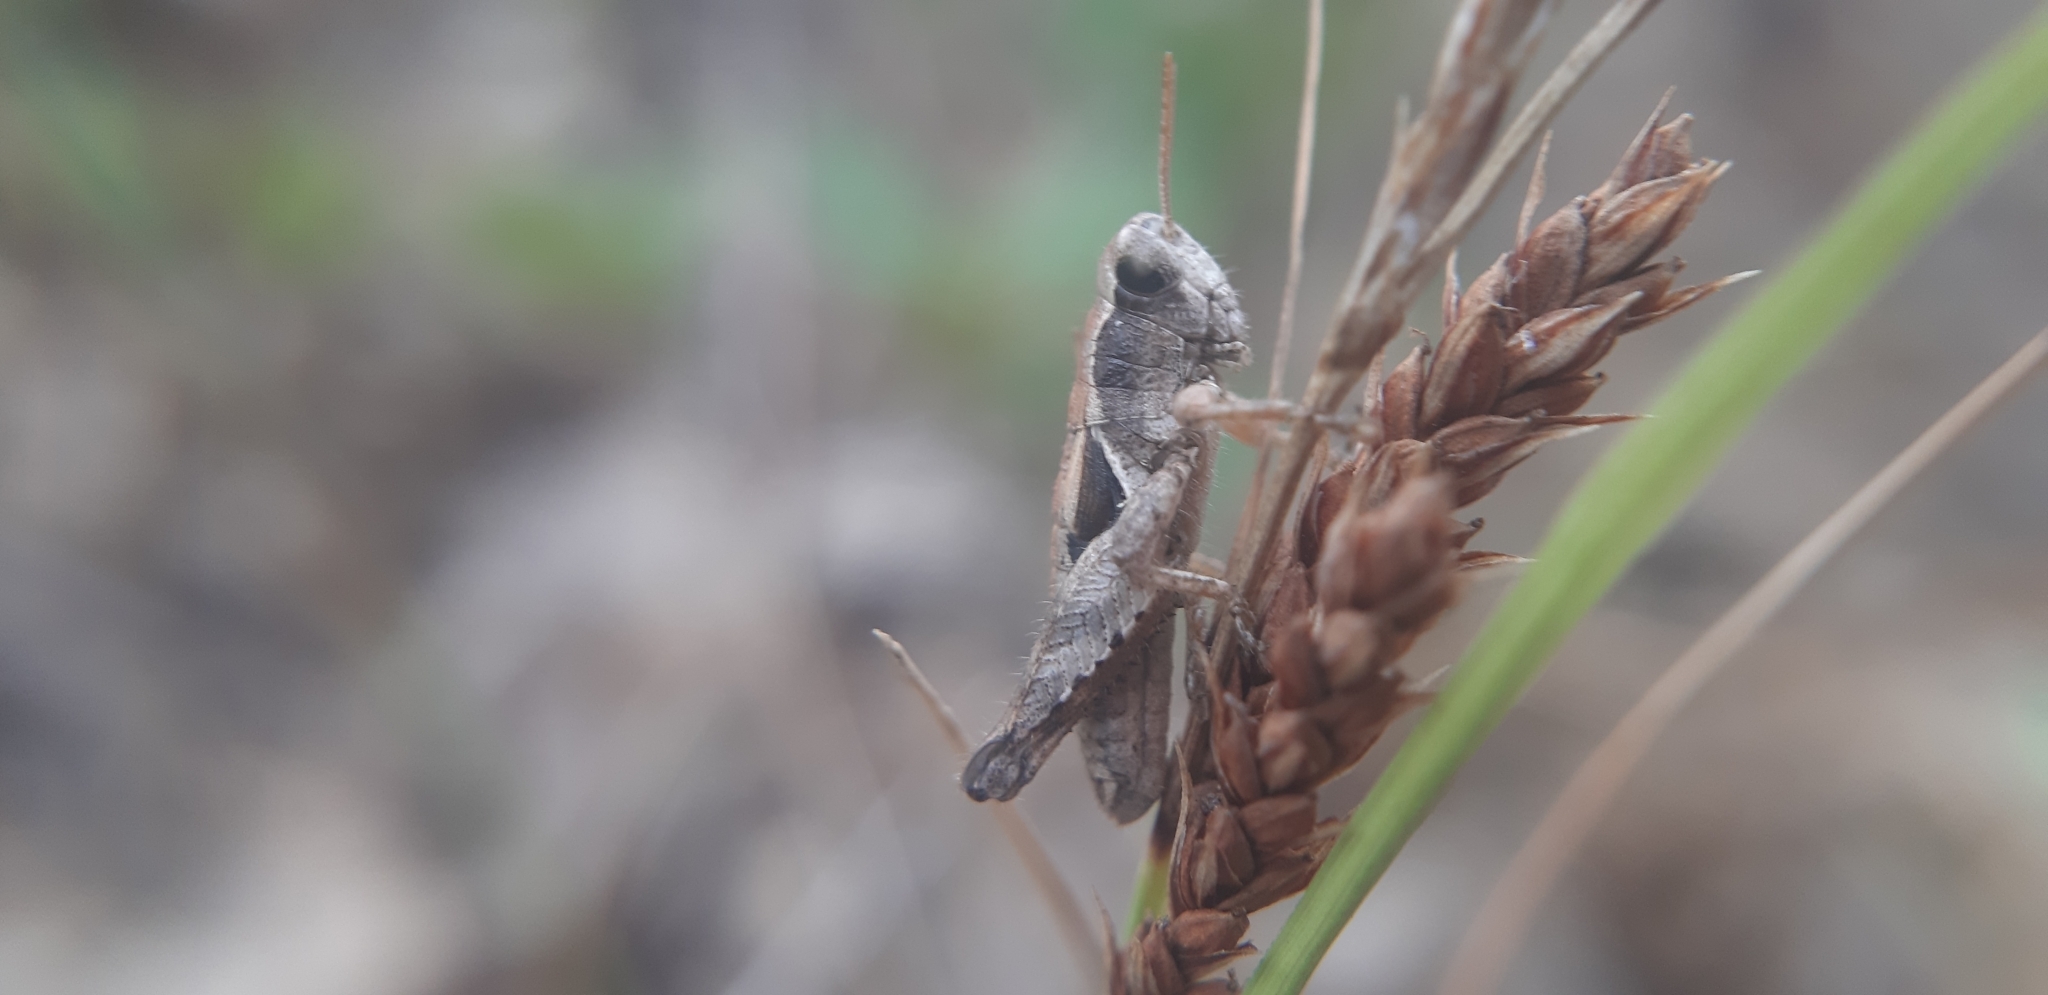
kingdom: Animalia
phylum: Arthropoda
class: Insecta
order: Orthoptera
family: Acrididae
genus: Pezotettix
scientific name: Pezotettix giornae
